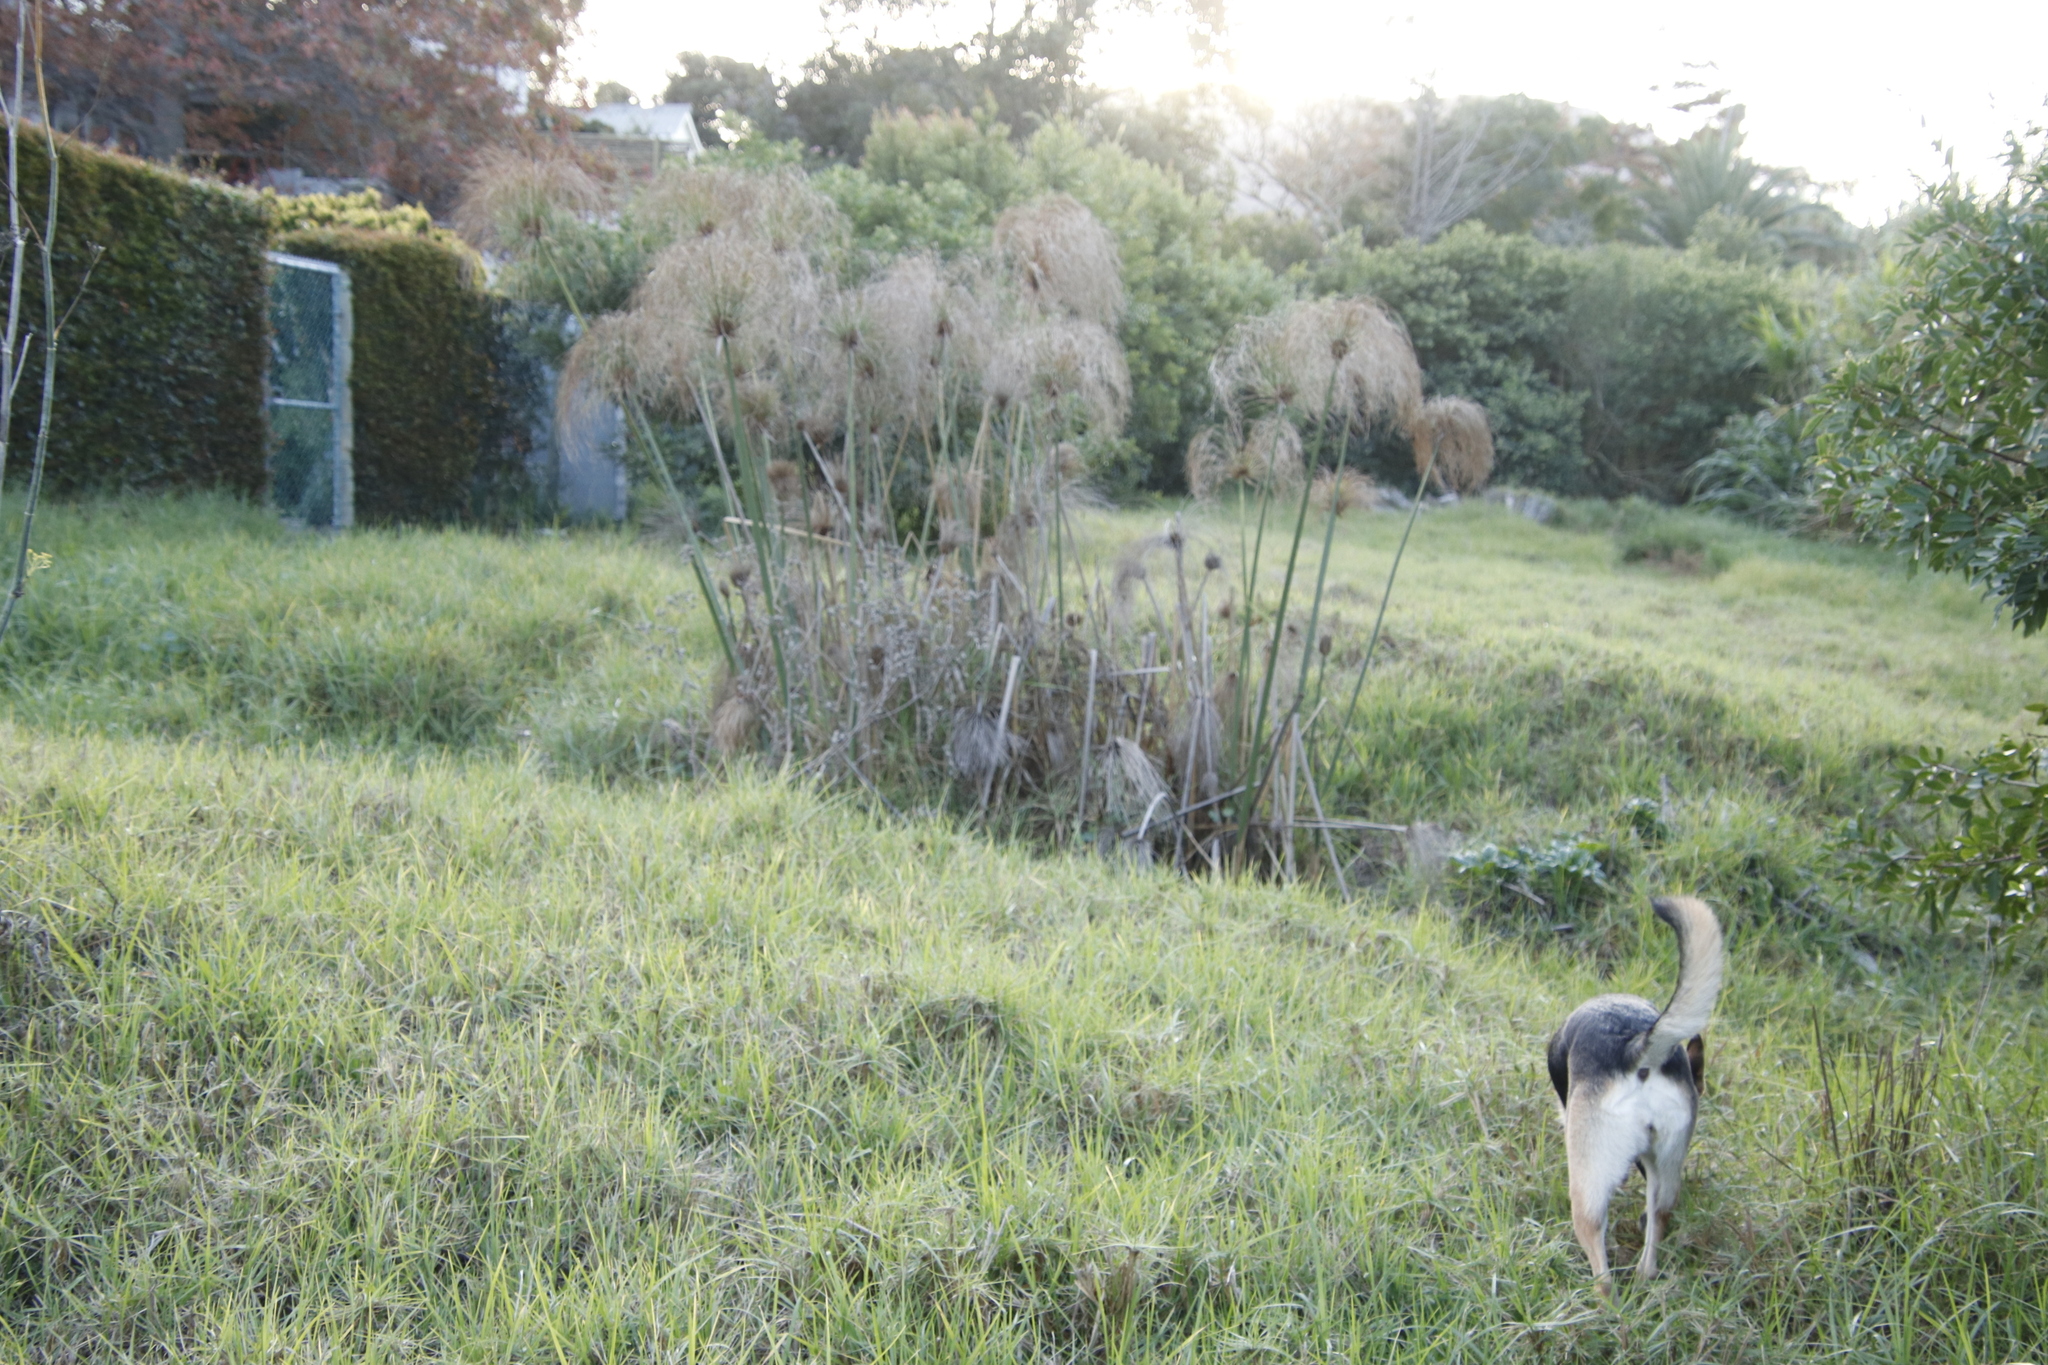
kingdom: Plantae
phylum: Tracheophyta
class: Liliopsida
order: Poales
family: Cyperaceae
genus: Cyperus
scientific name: Cyperus papyrus
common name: Papyrus
